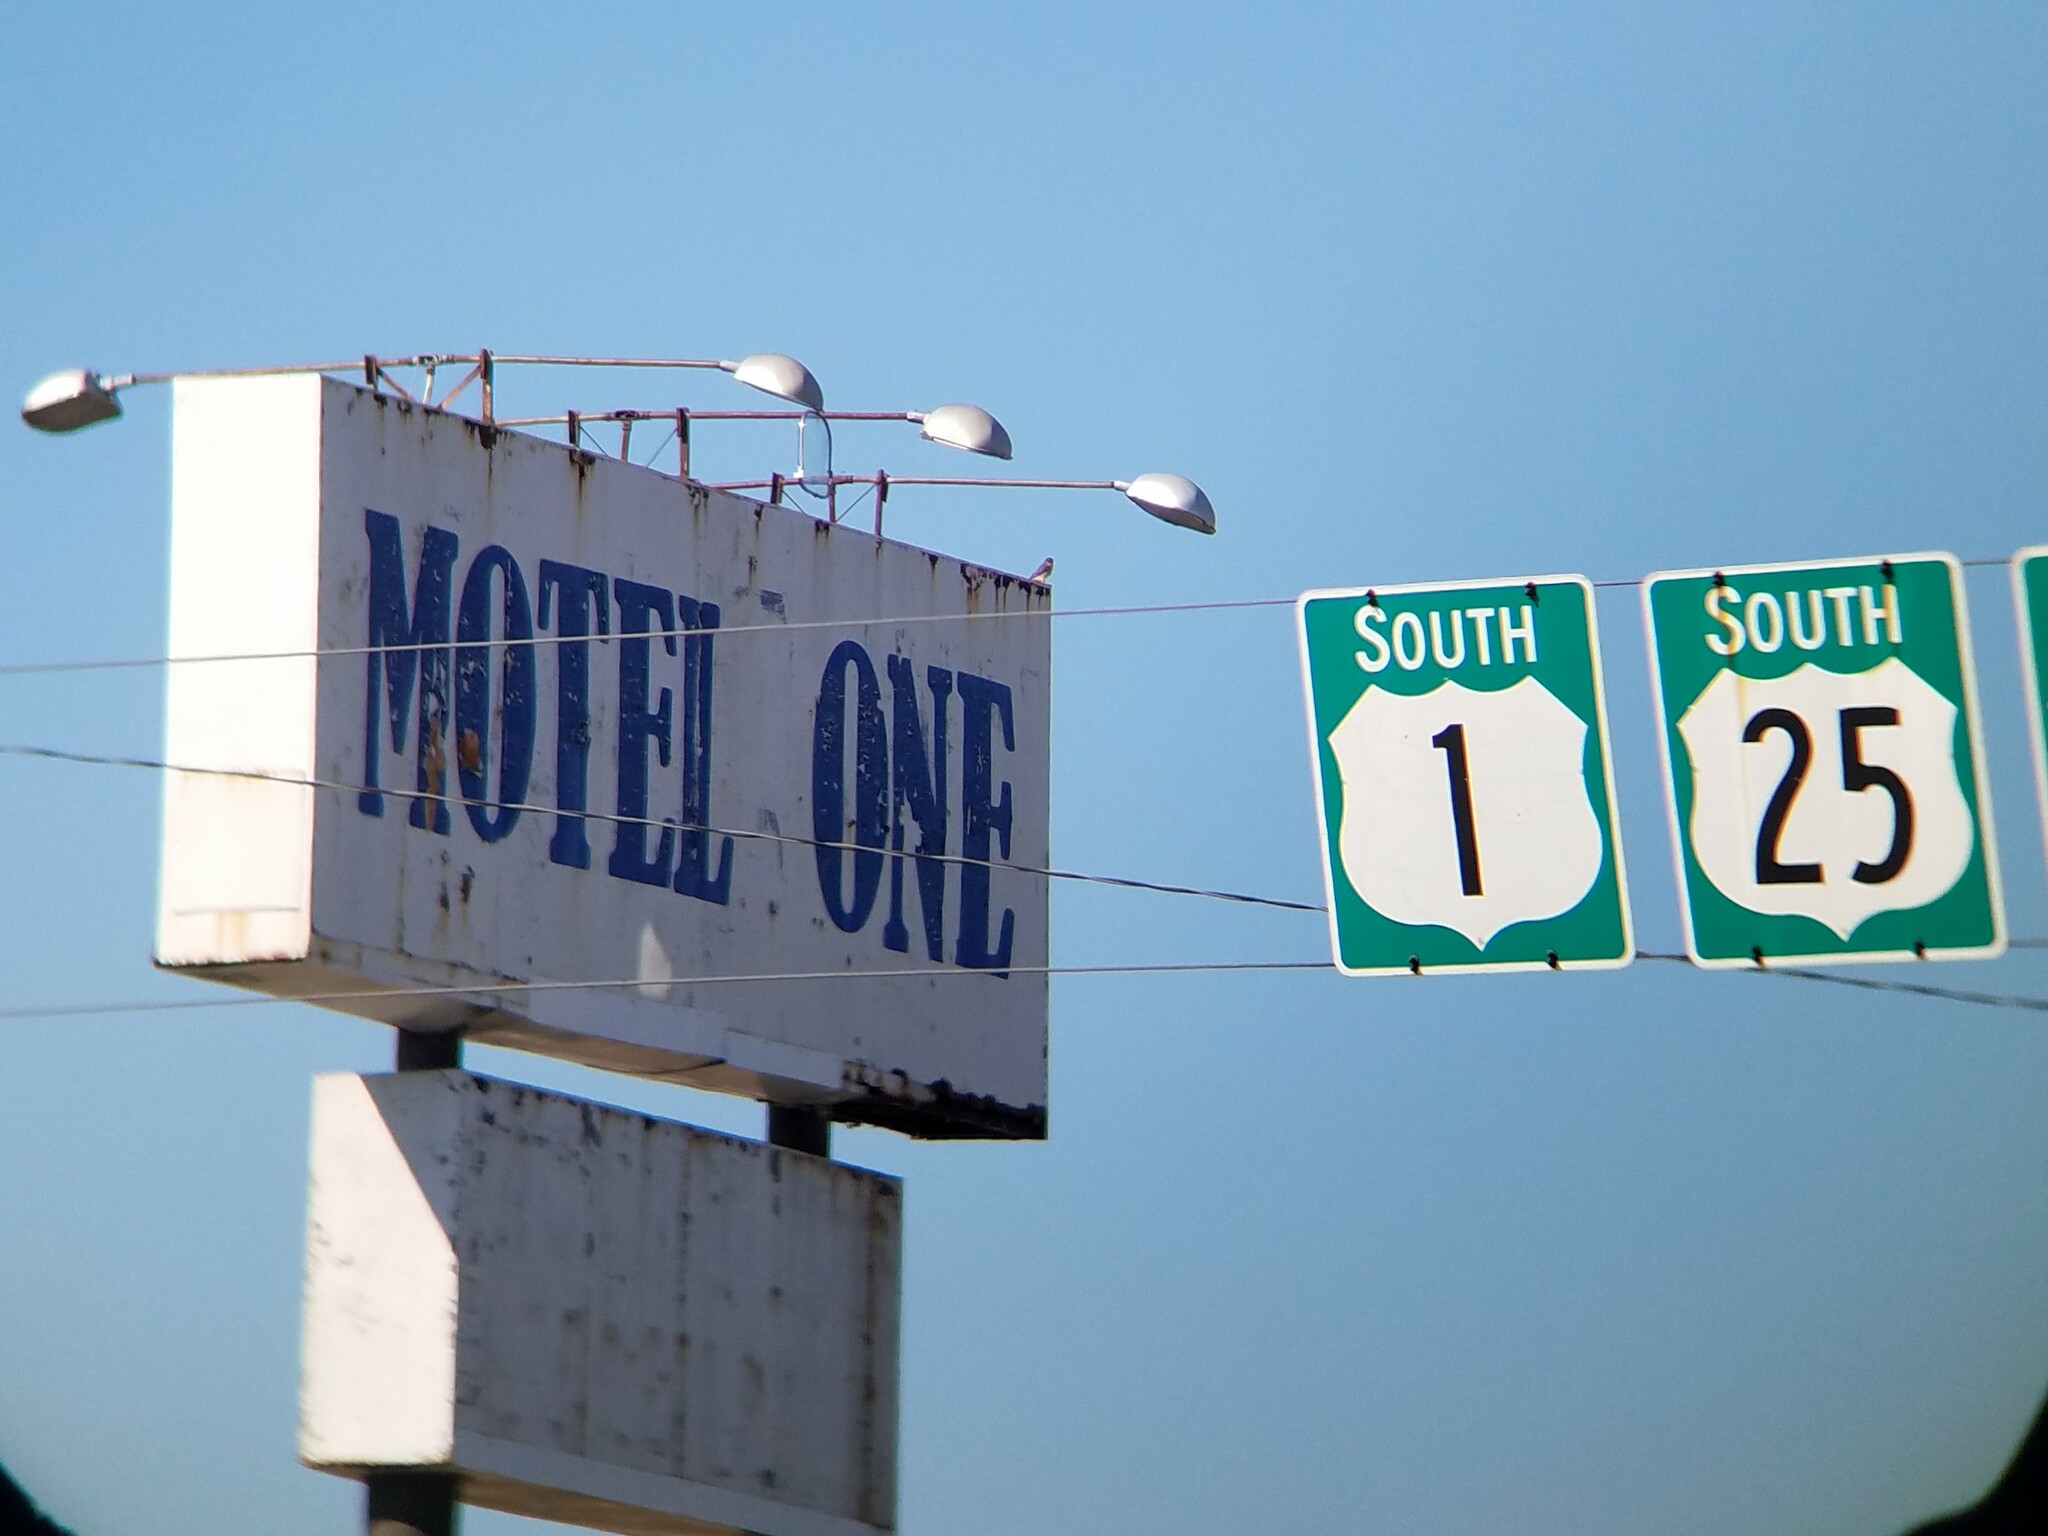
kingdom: Animalia
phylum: Chordata
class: Aves
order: Falconiformes
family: Falconidae
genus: Falco
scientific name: Falco sparverius
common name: American kestrel
